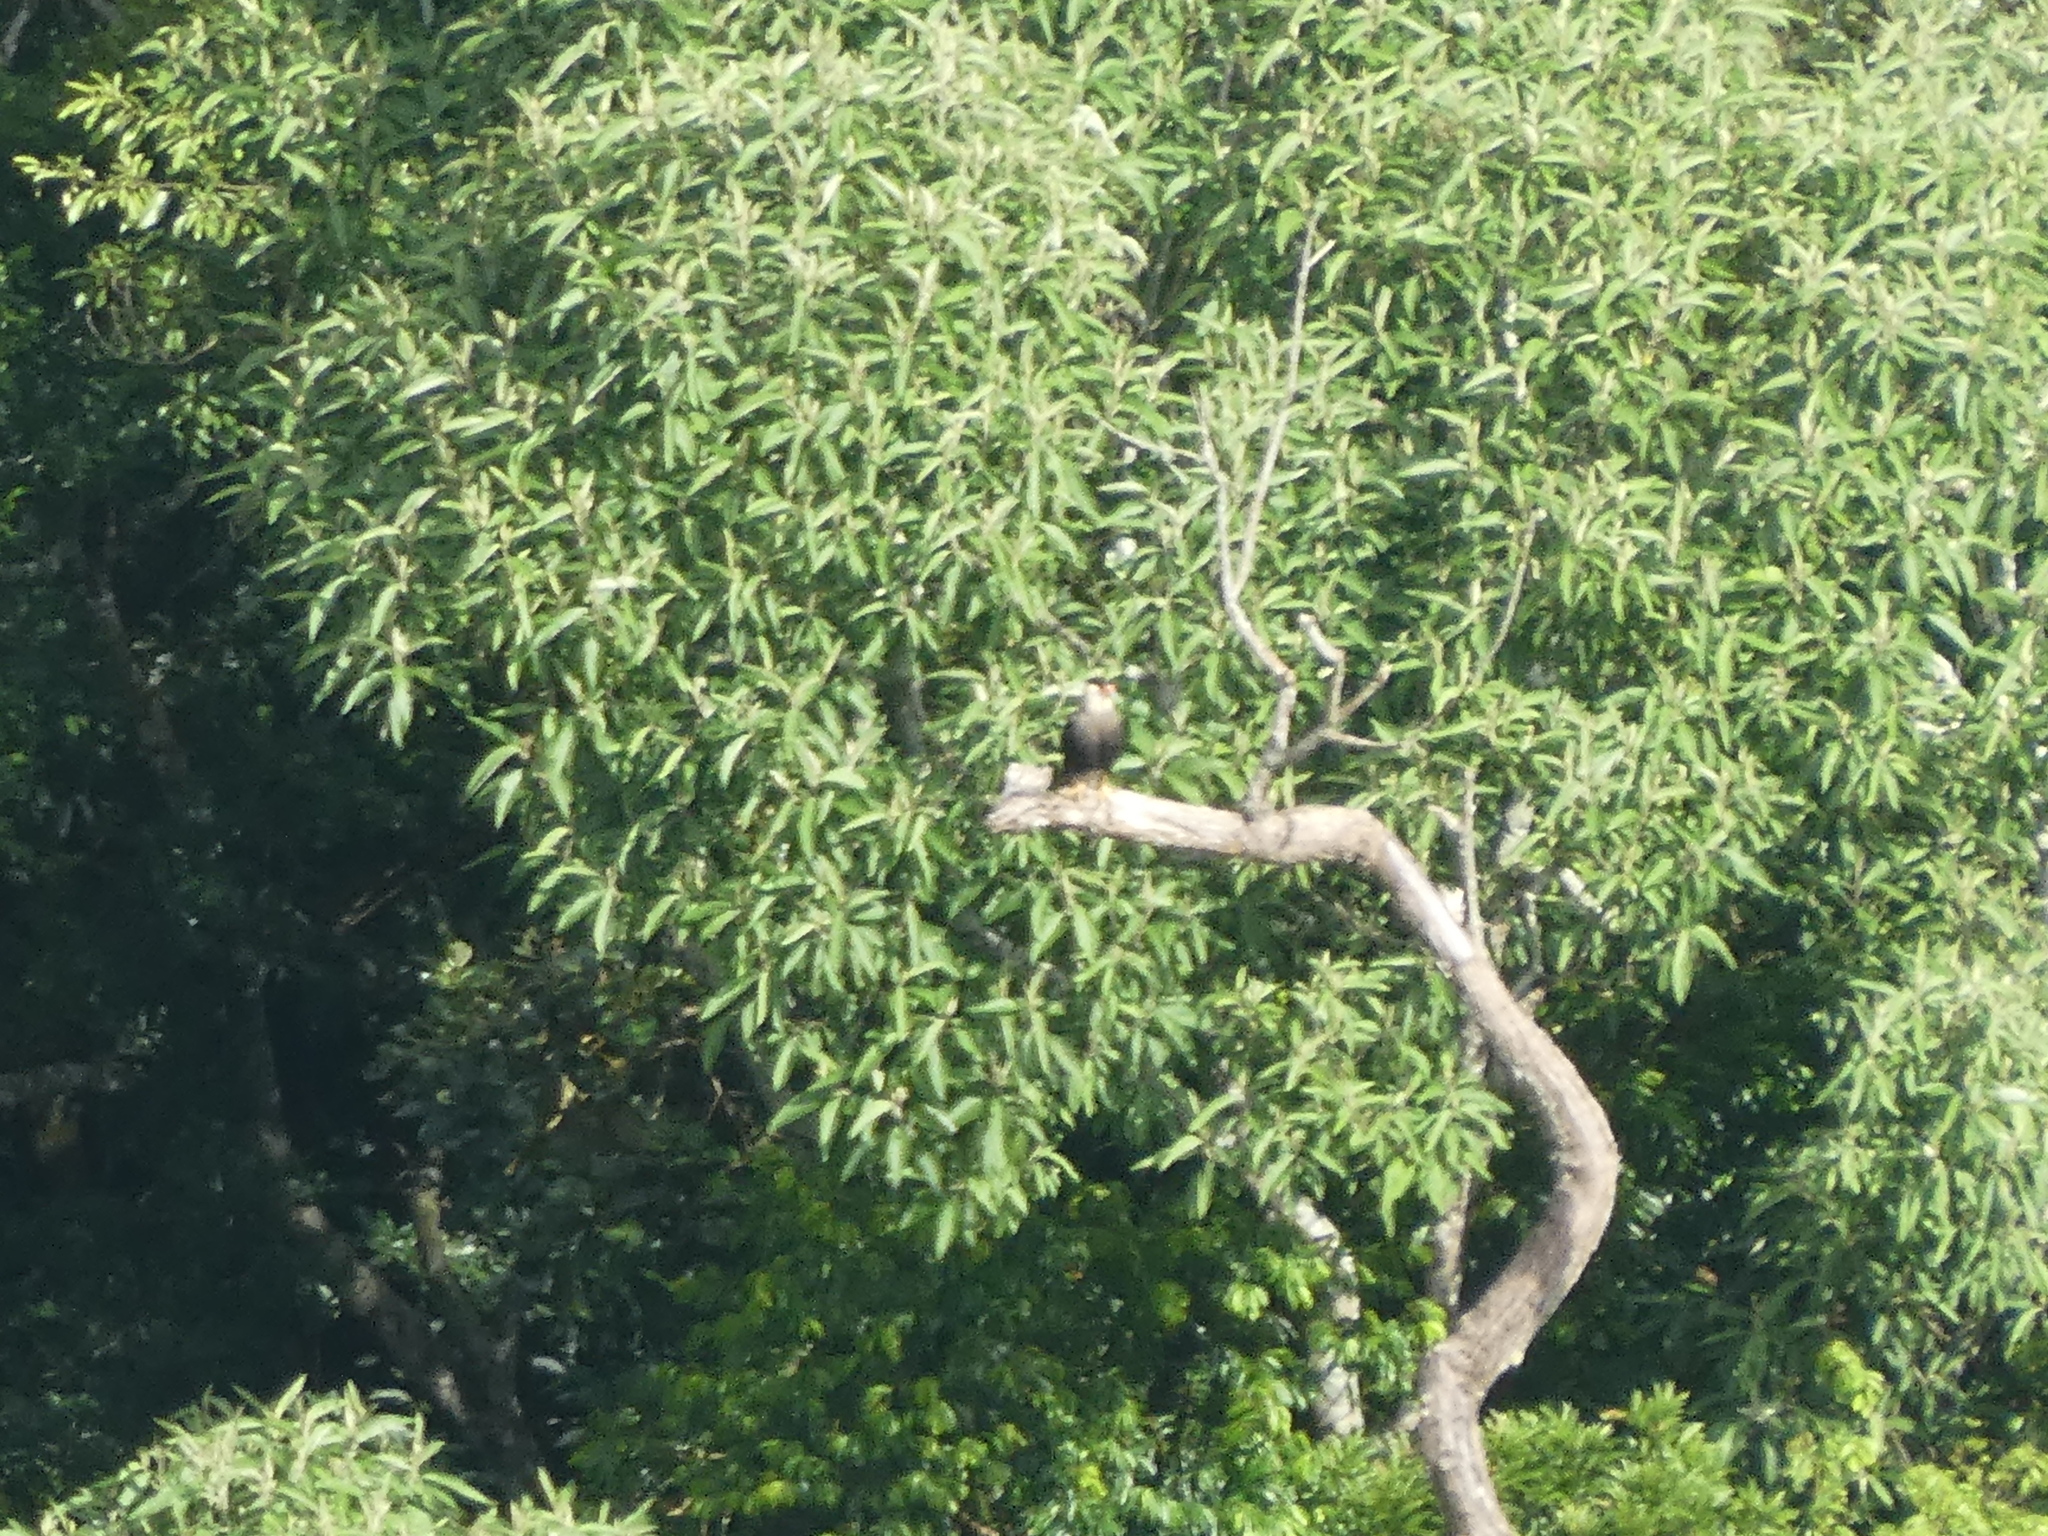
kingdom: Animalia
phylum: Chordata
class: Aves
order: Falconiformes
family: Falconidae
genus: Caracara
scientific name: Caracara plancus
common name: Southern caracara
